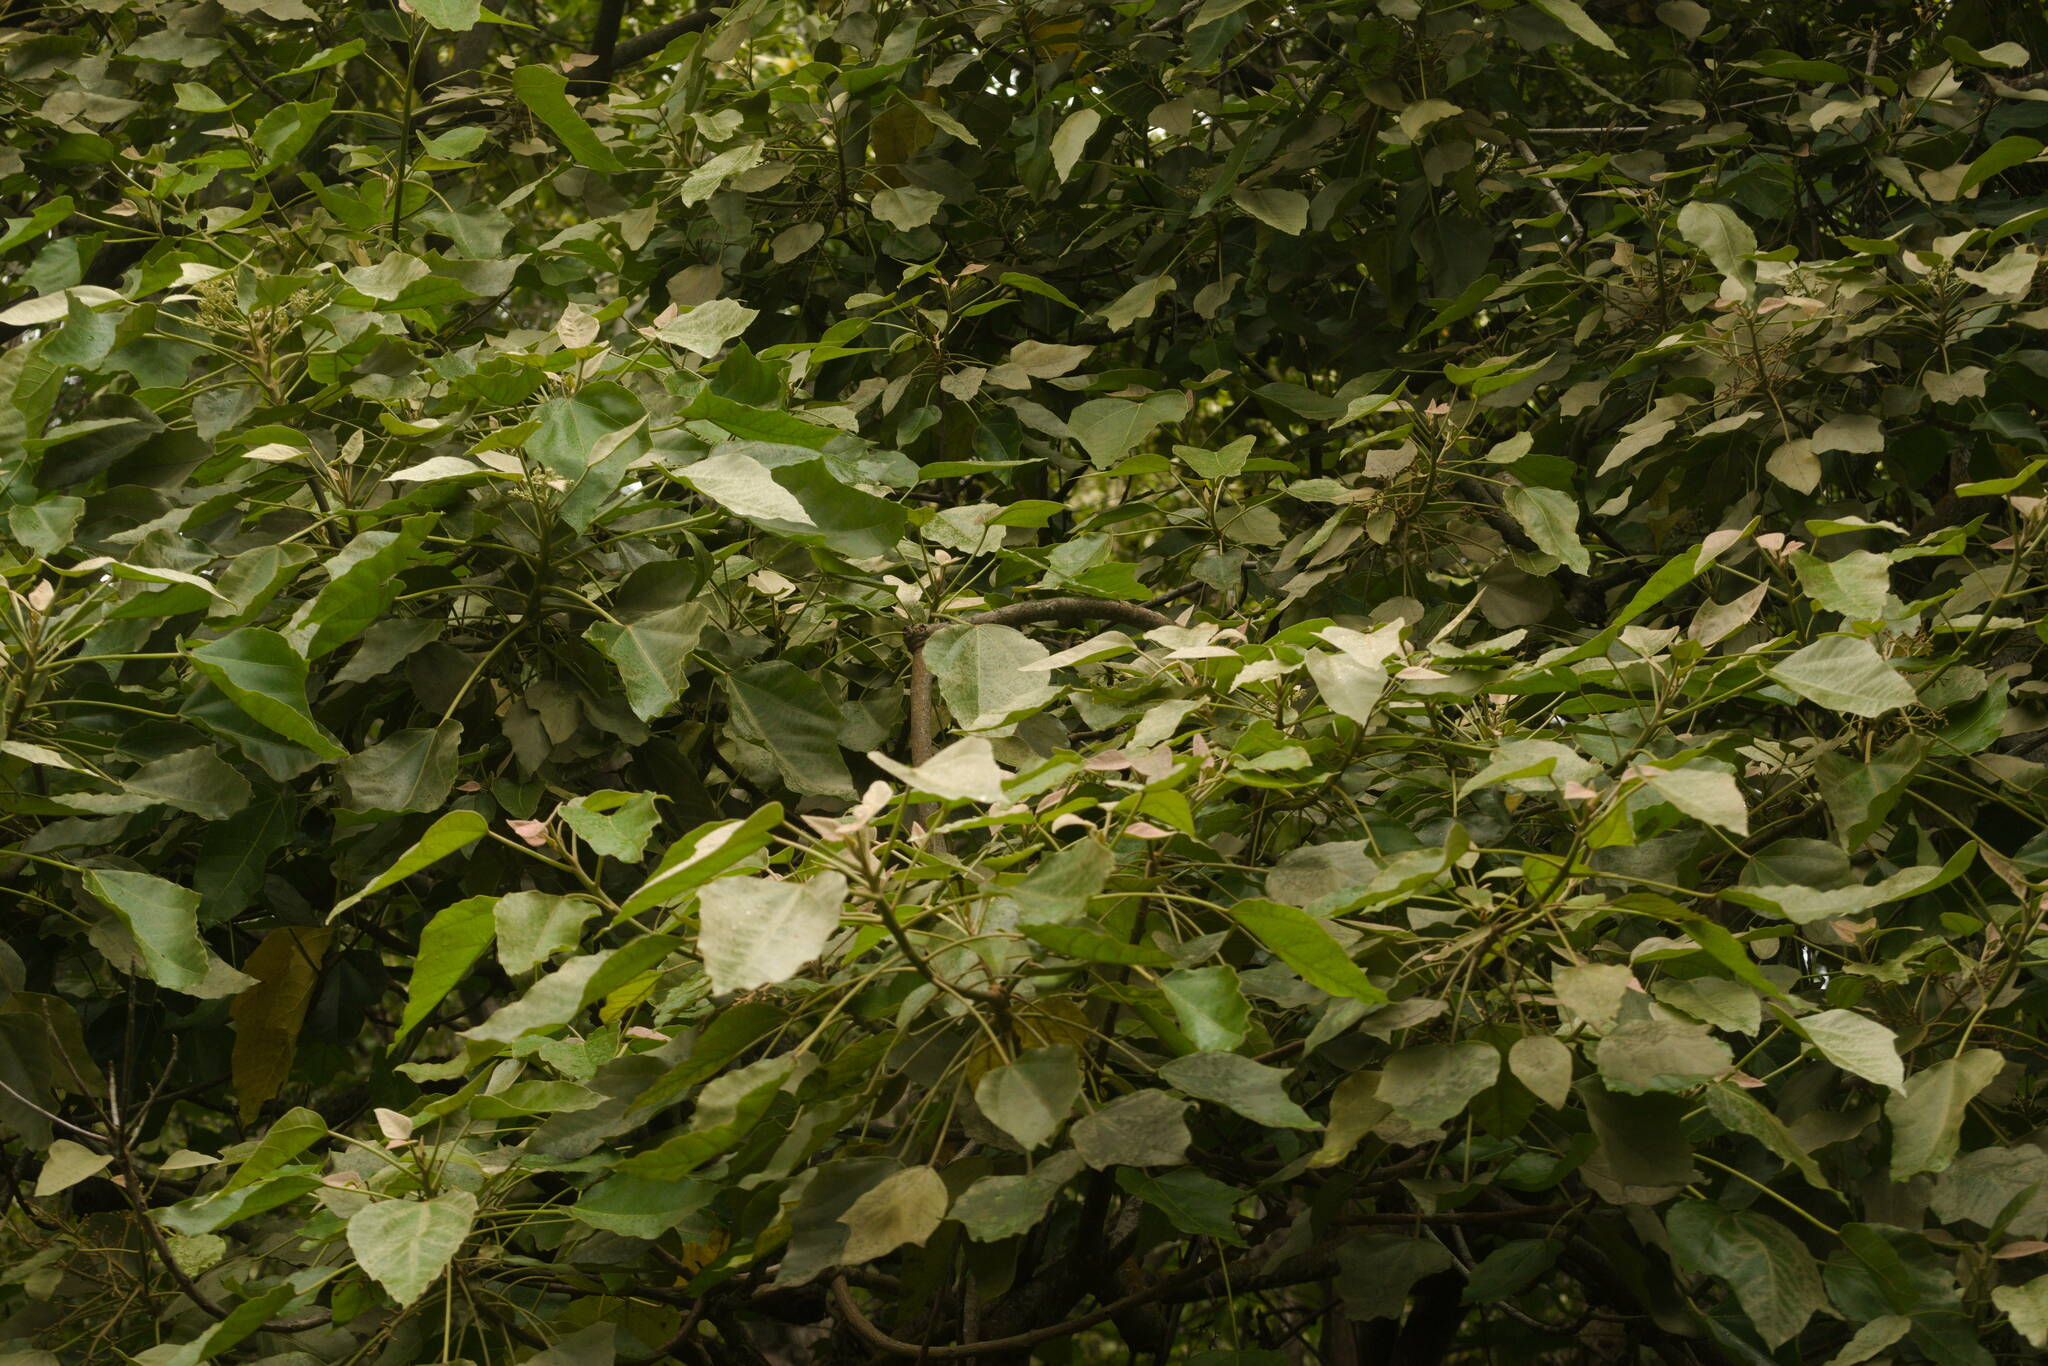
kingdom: Plantae
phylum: Tracheophyta
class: Magnoliopsida
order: Malpighiales
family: Euphorbiaceae
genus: Aleurites
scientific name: Aleurites moluccanus
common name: Candlenut tree
